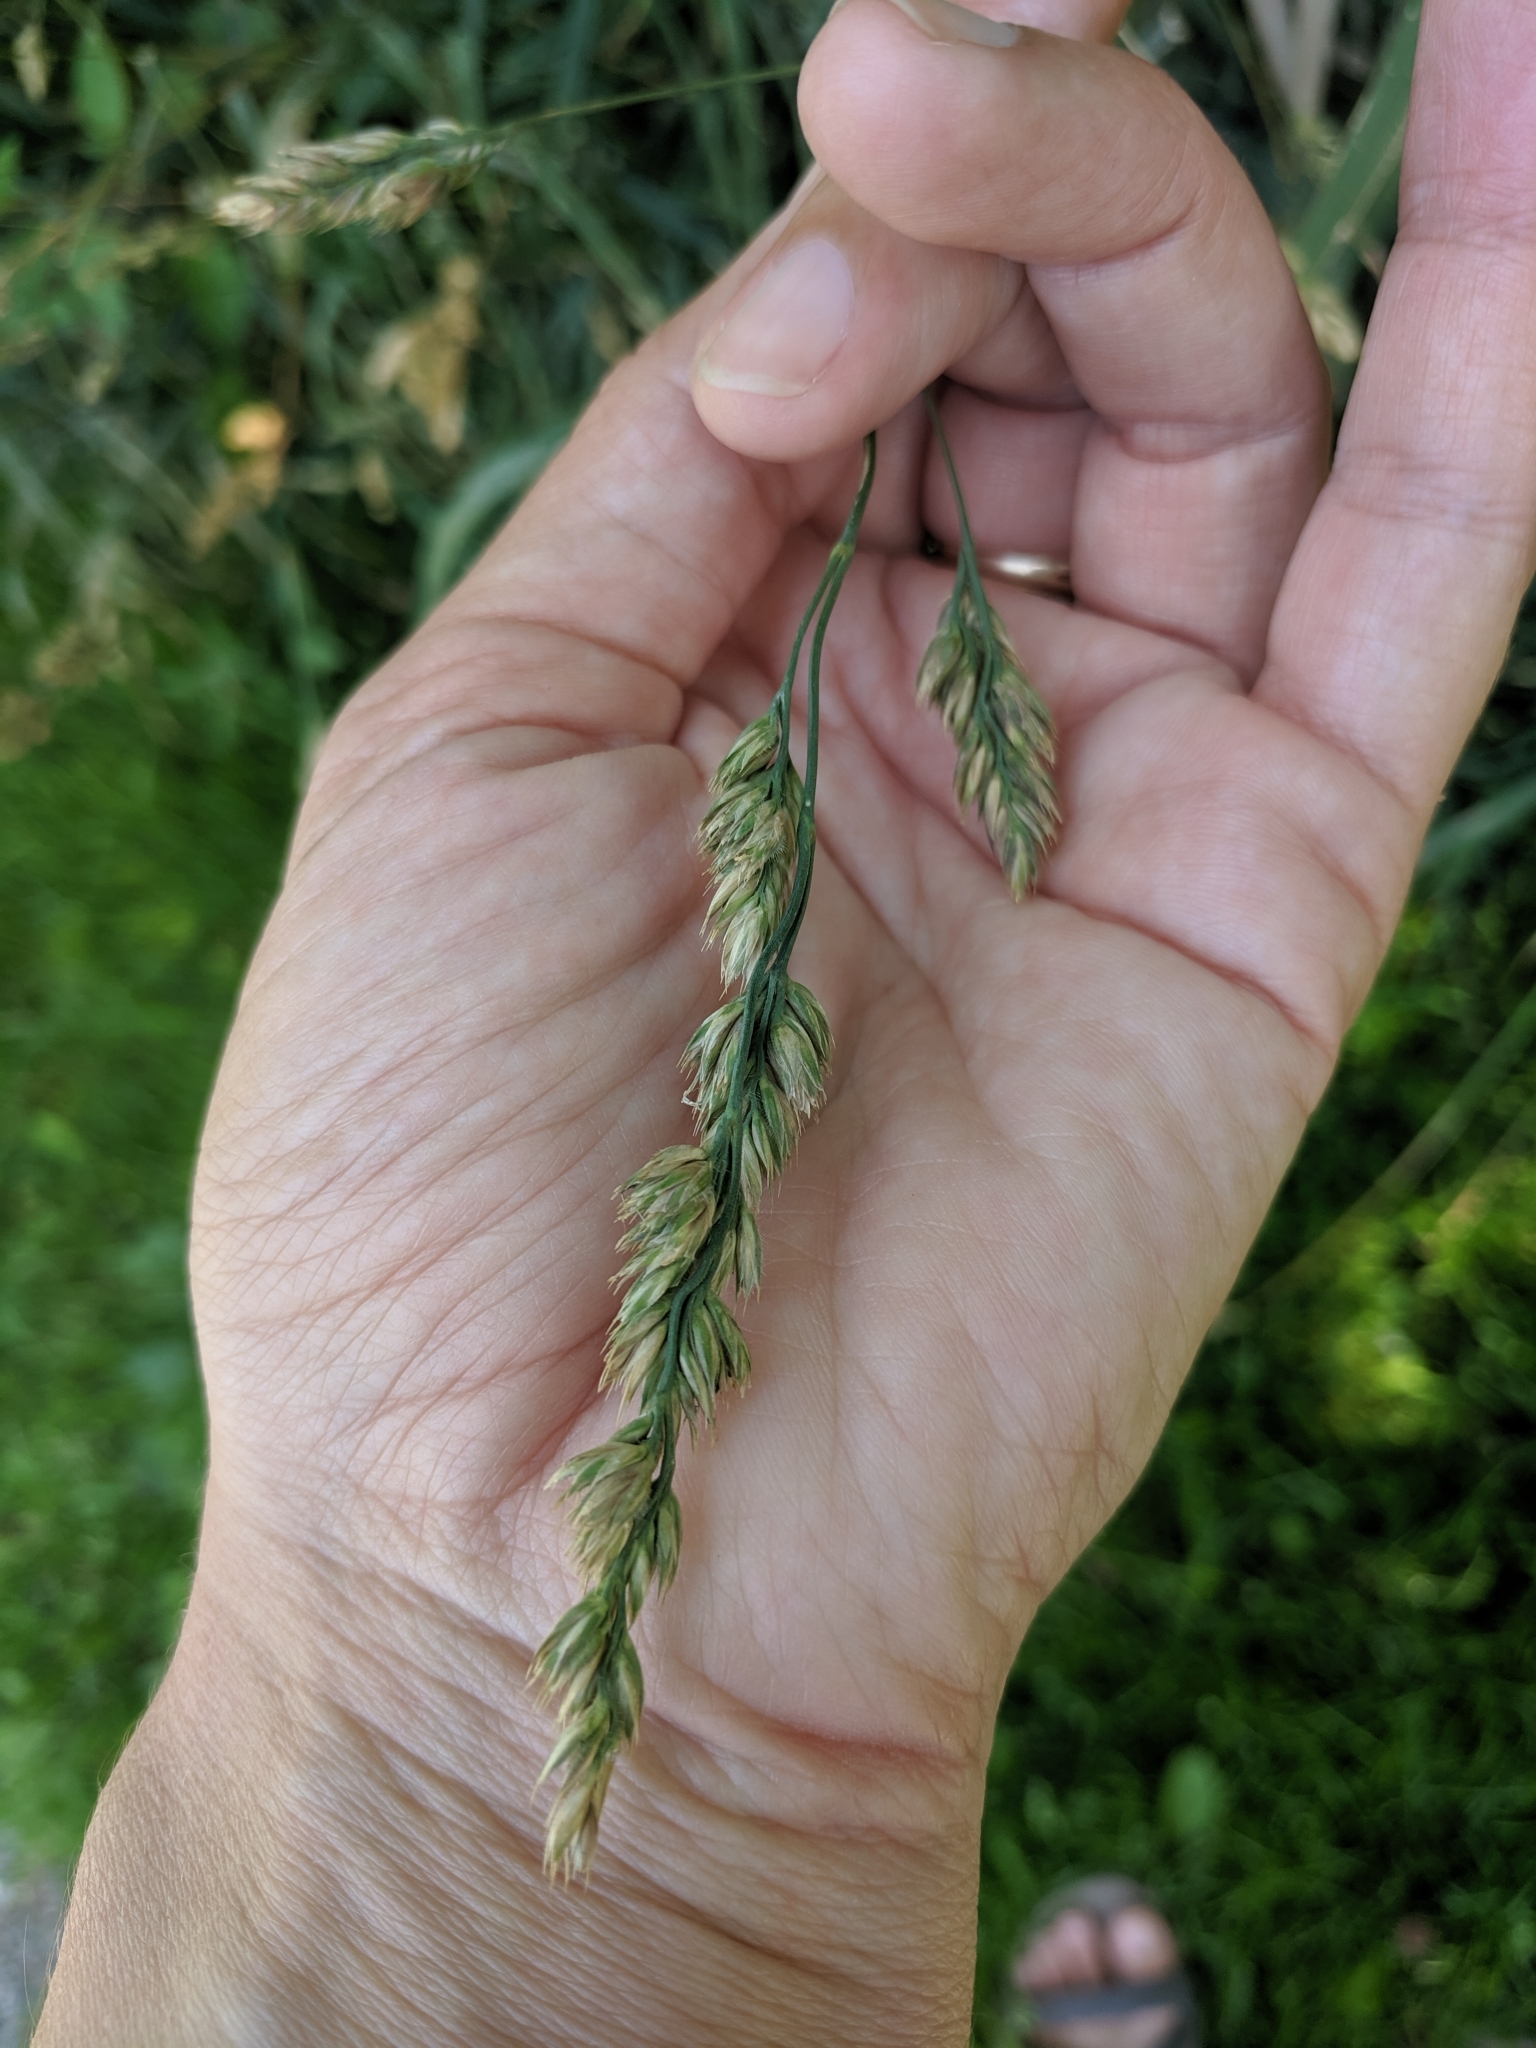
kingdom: Plantae
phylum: Tracheophyta
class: Liliopsida
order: Poales
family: Poaceae
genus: Dactylis
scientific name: Dactylis glomerata
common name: Orchardgrass
